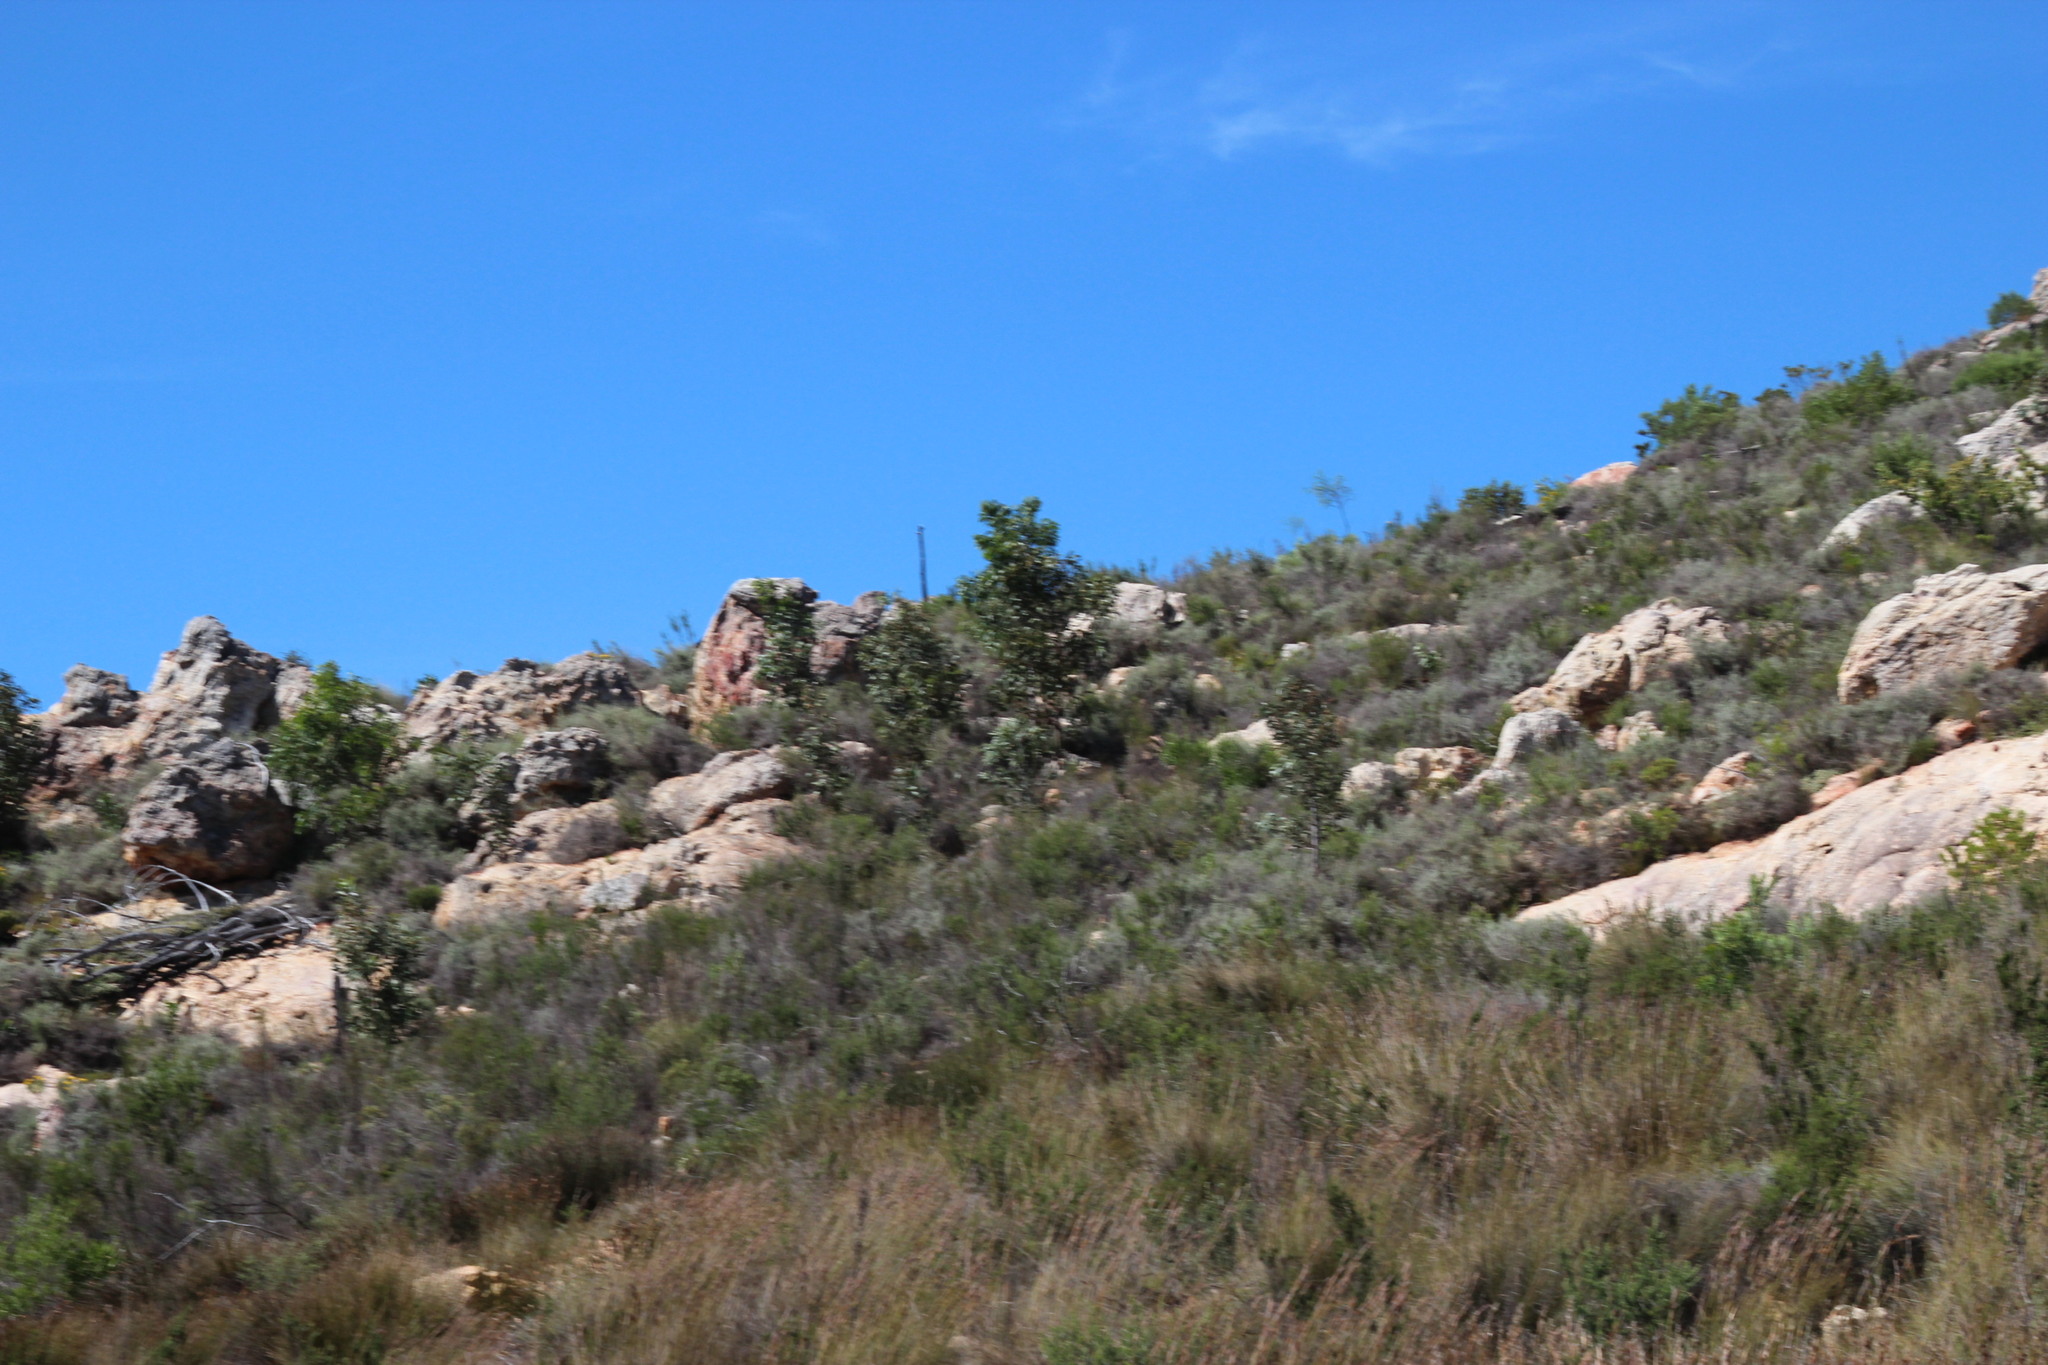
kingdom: Plantae
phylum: Tracheophyta
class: Magnoliopsida
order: Fabales
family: Fabaceae
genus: Acacia
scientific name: Acacia pycnantha
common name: Golden wattle
